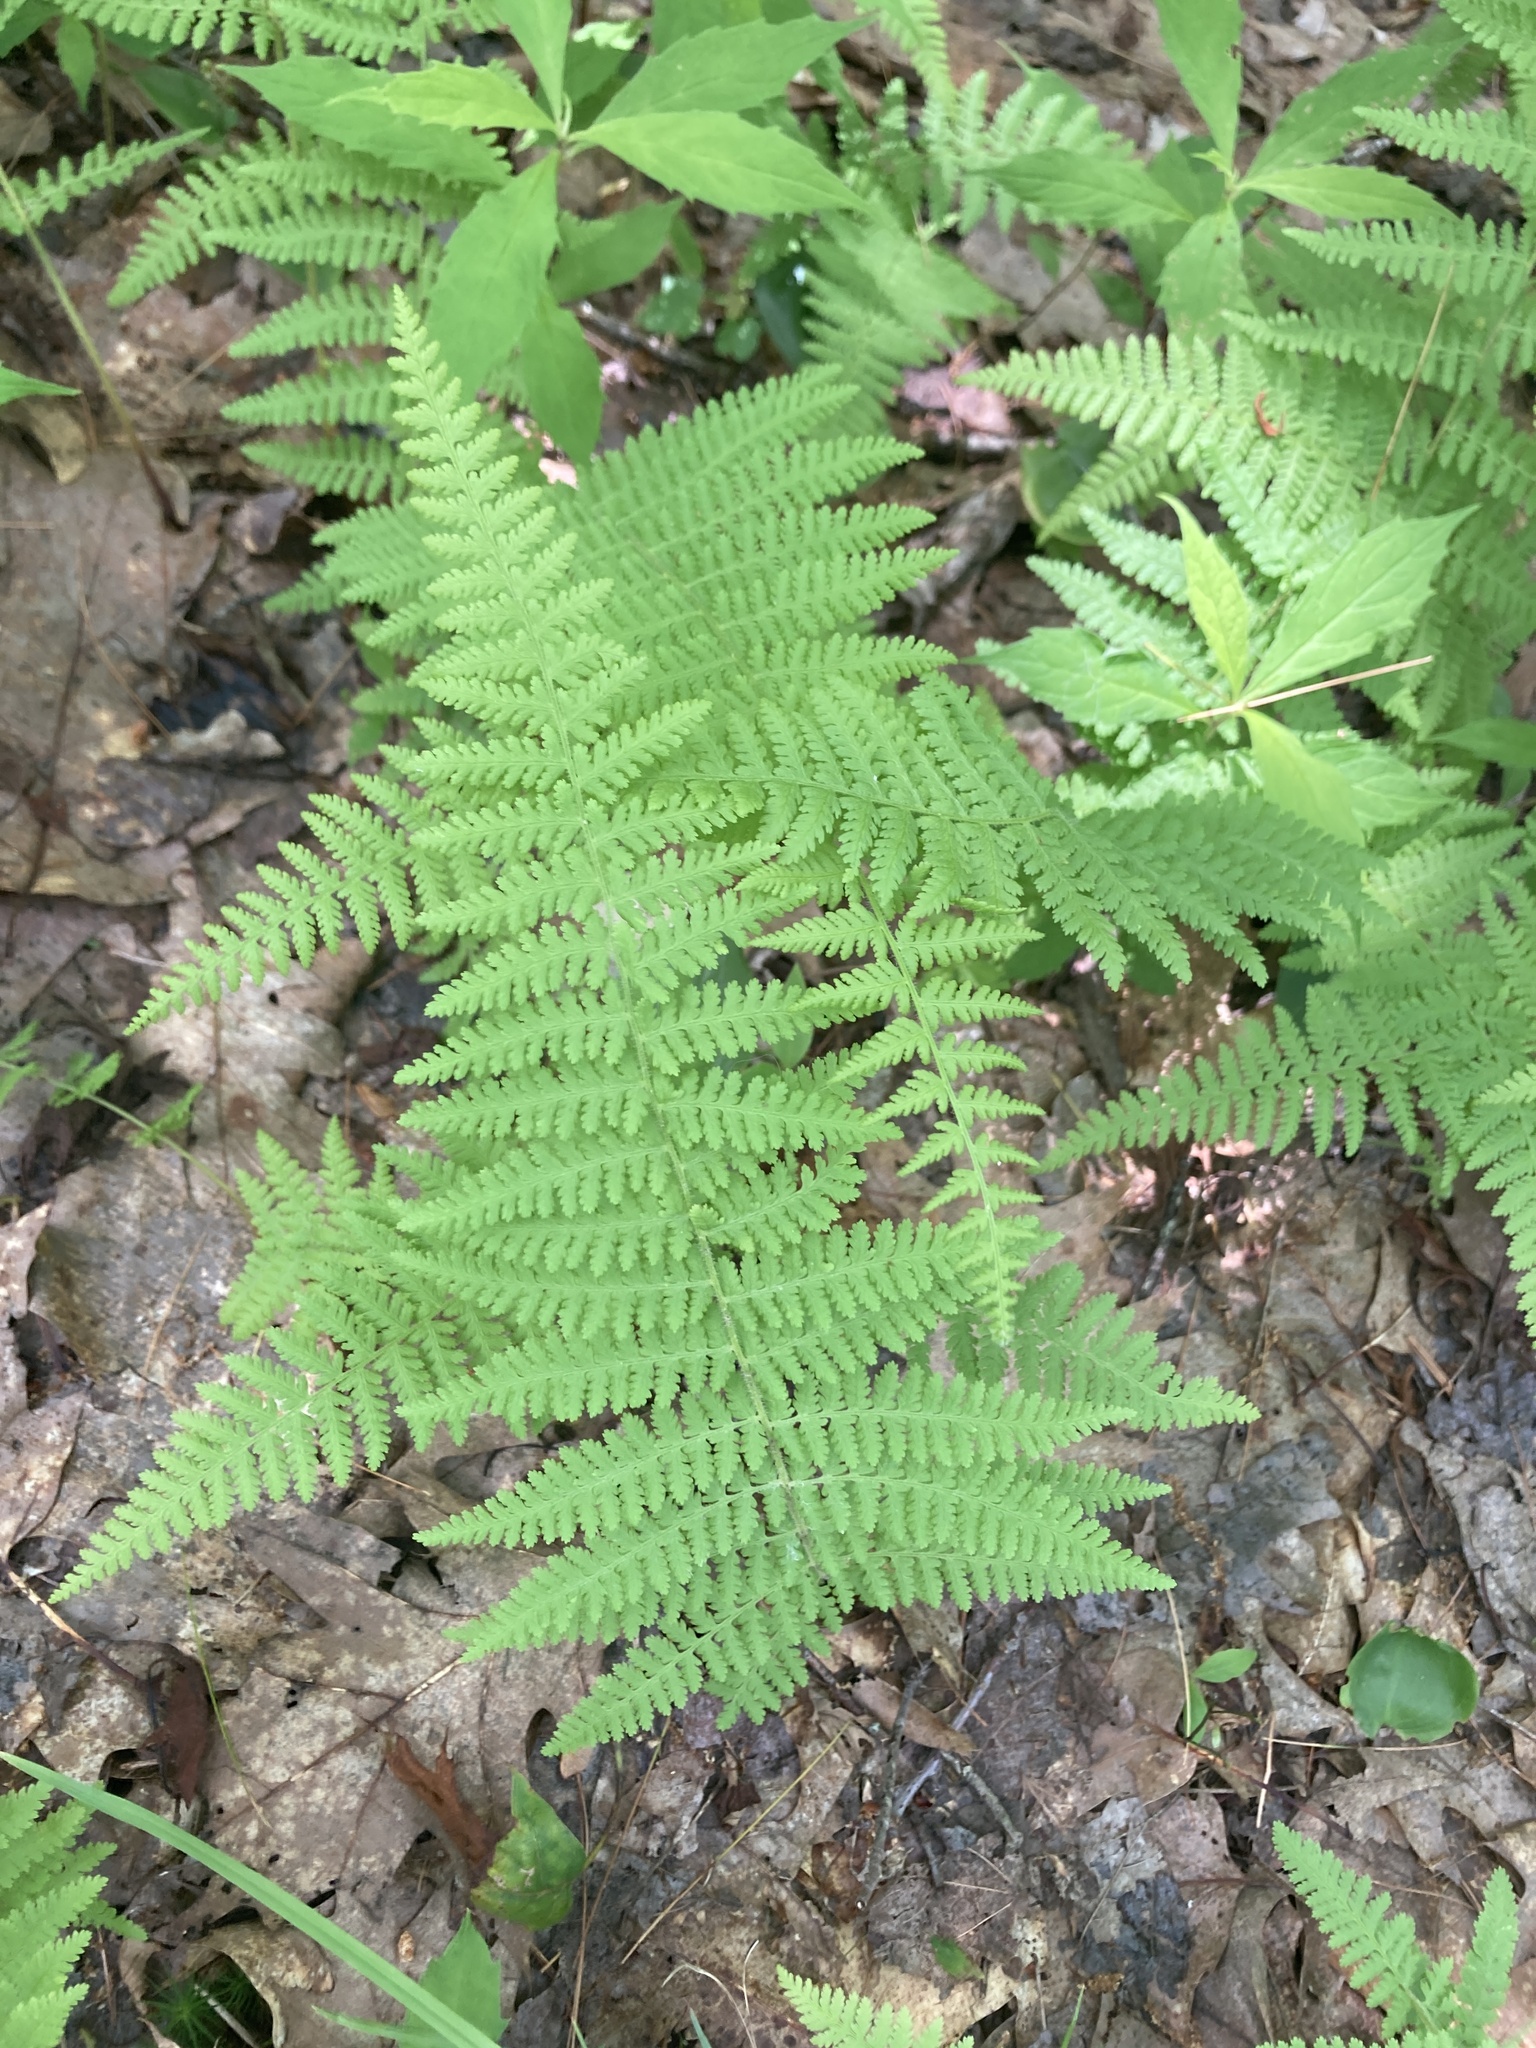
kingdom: Plantae
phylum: Tracheophyta
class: Polypodiopsida
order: Polypodiales
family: Dennstaedtiaceae
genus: Sitobolium
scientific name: Sitobolium punctilobum
